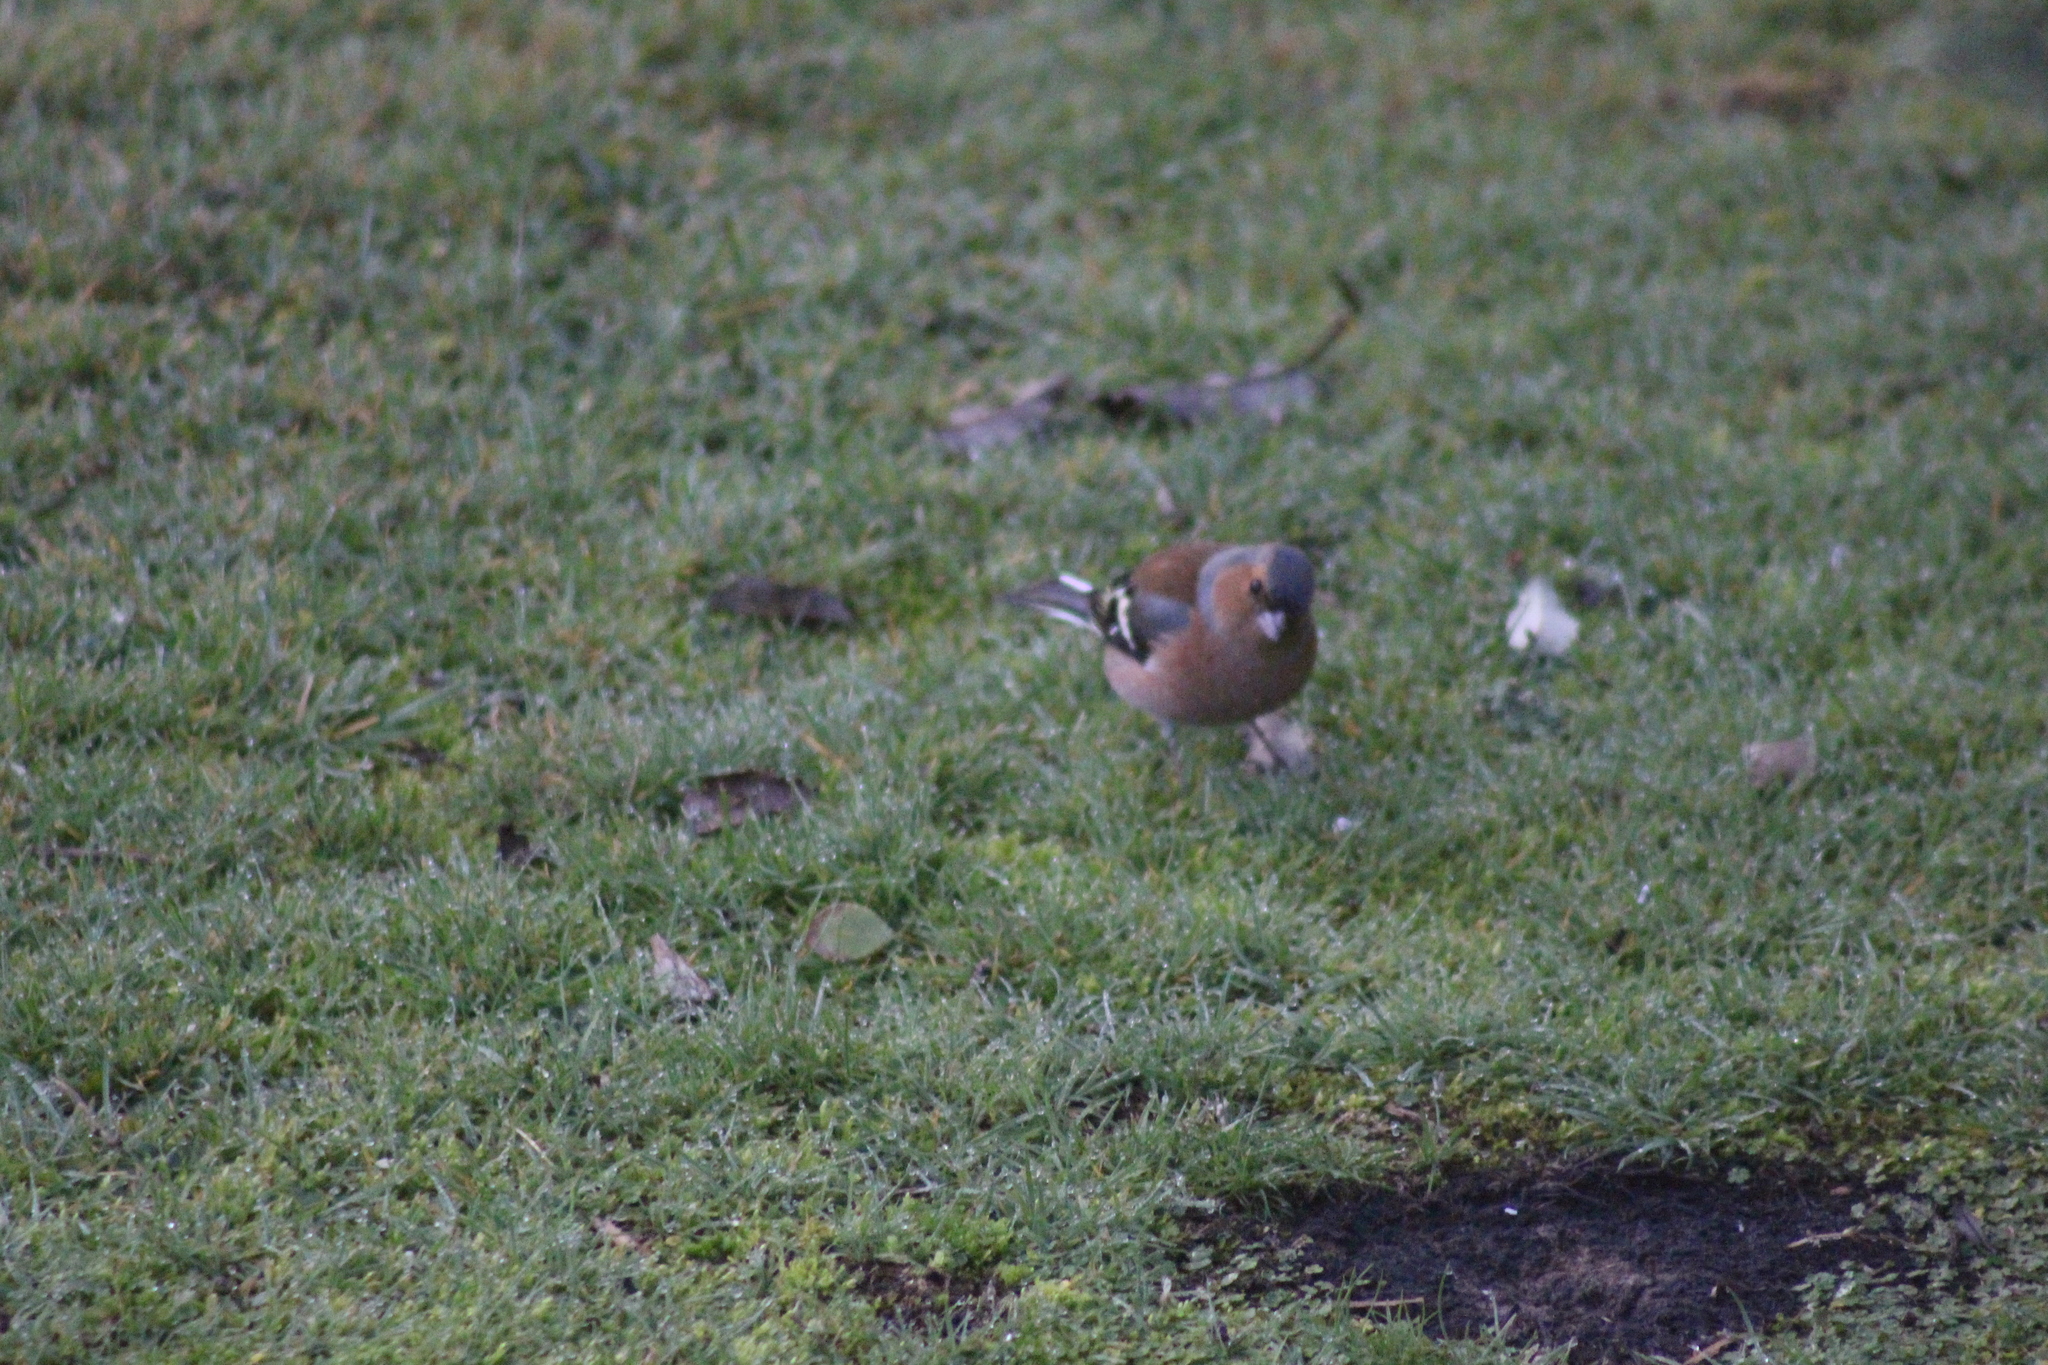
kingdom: Animalia
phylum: Chordata
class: Aves
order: Passeriformes
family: Fringillidae
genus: Fringilla
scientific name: Fringilla coelebs
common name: Common chaffinch
